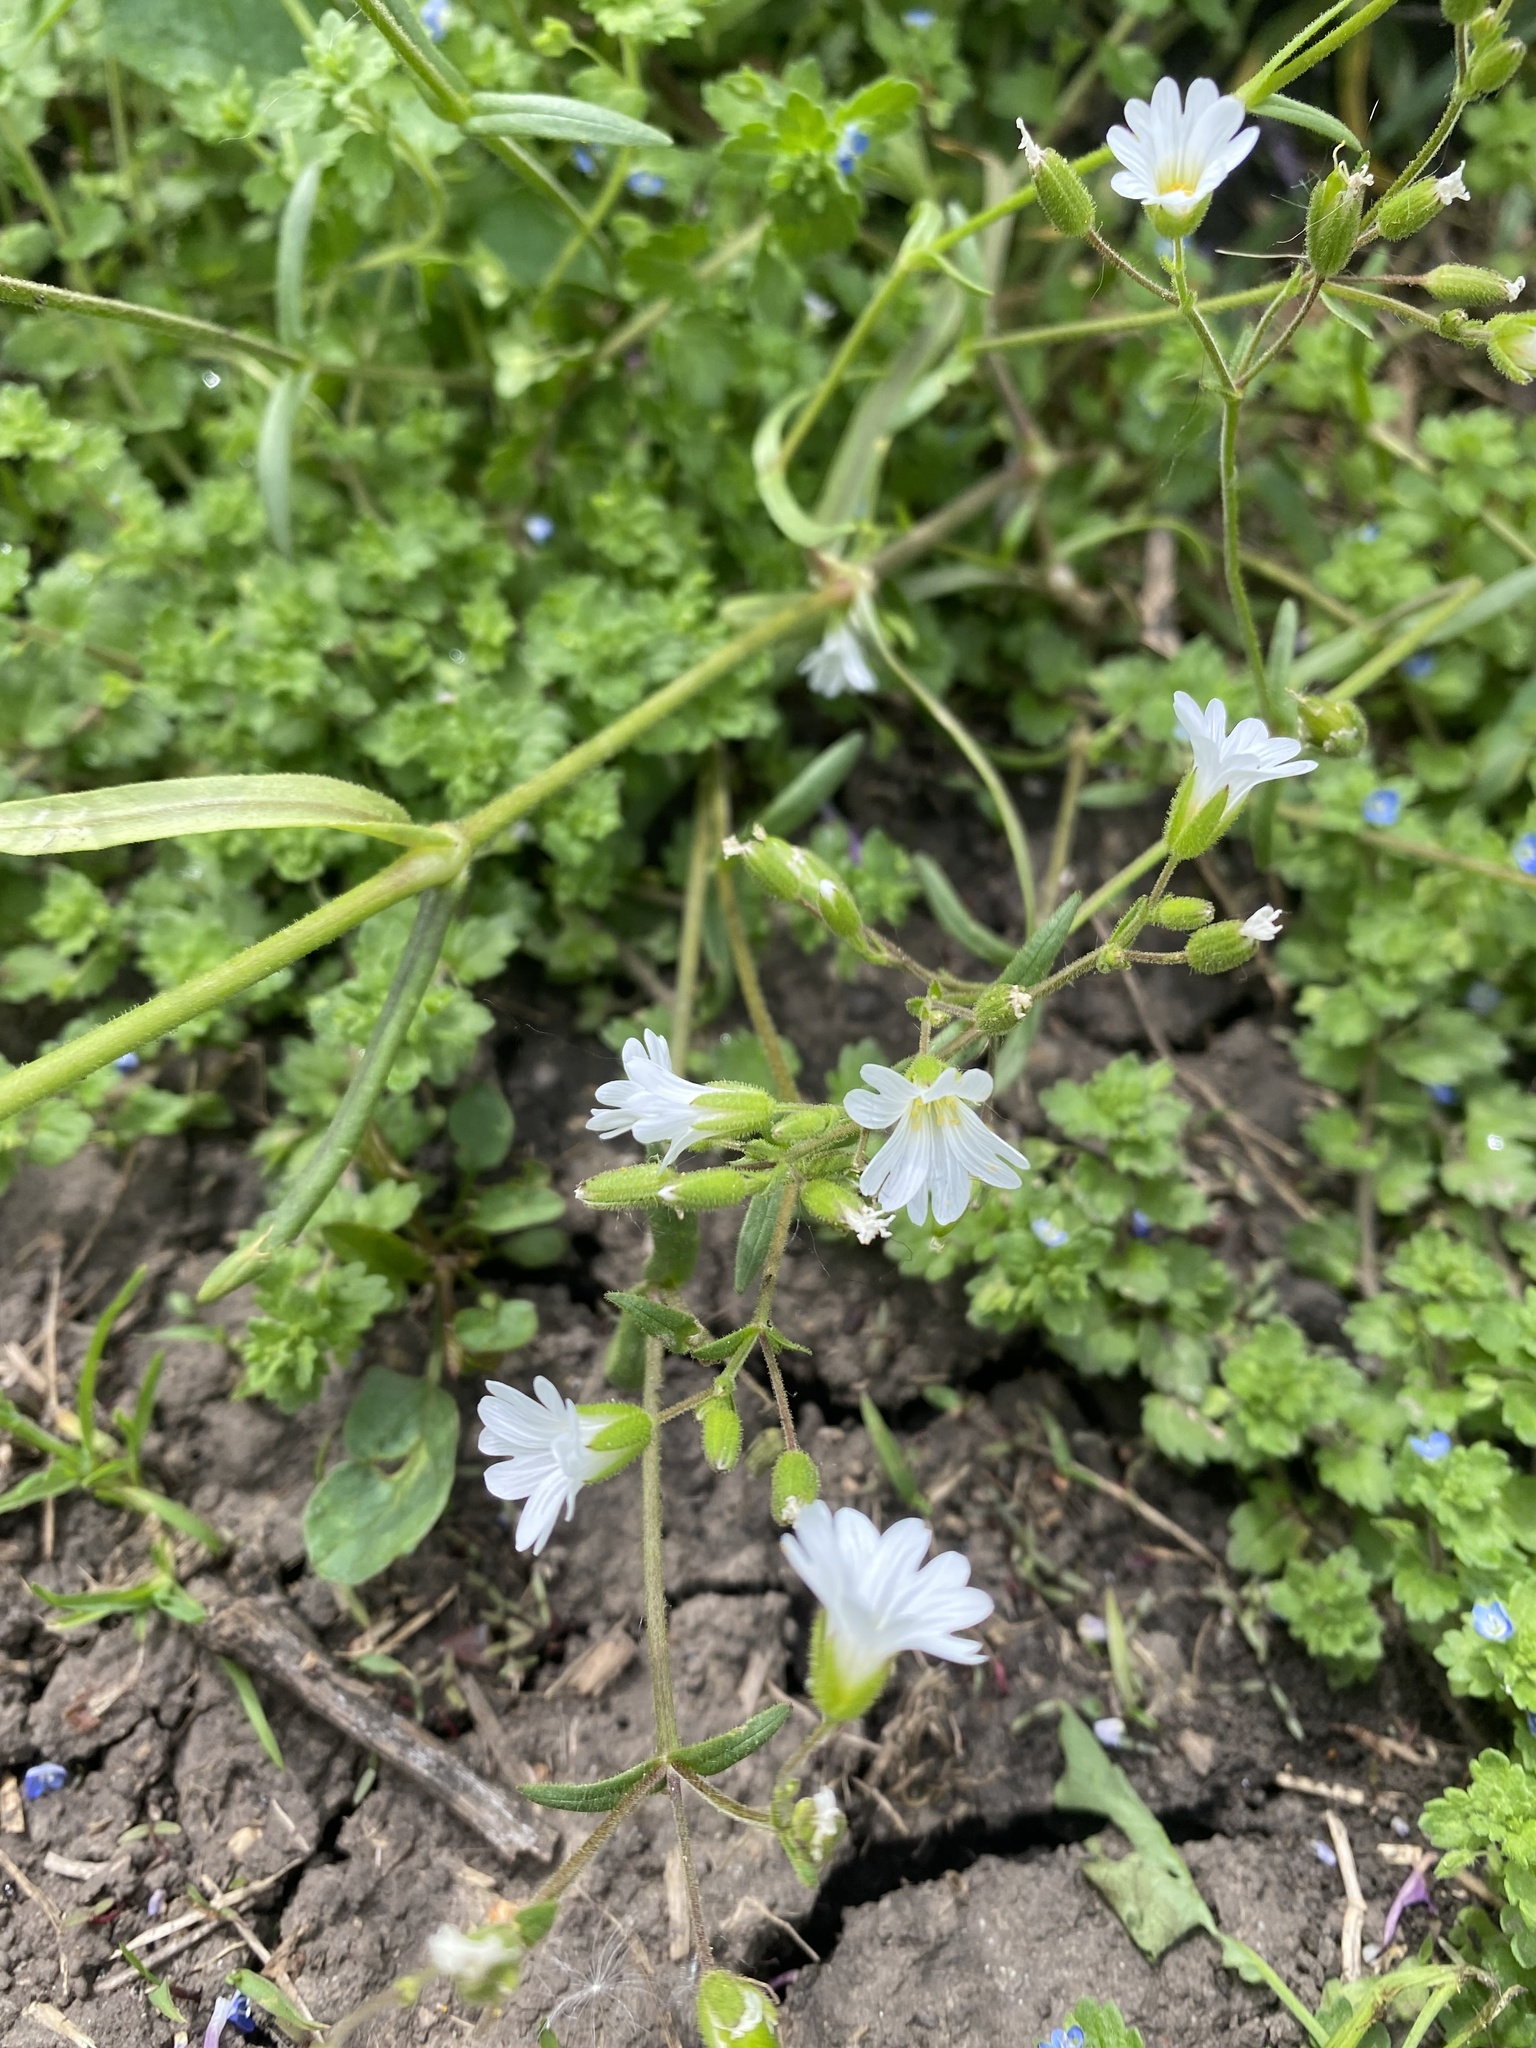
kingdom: Plantae
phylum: Tracheophyta
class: Magnoliopsida
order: Caryophyllales
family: Caryophyllaceae
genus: Dichodon
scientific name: Dichodon viscidum
